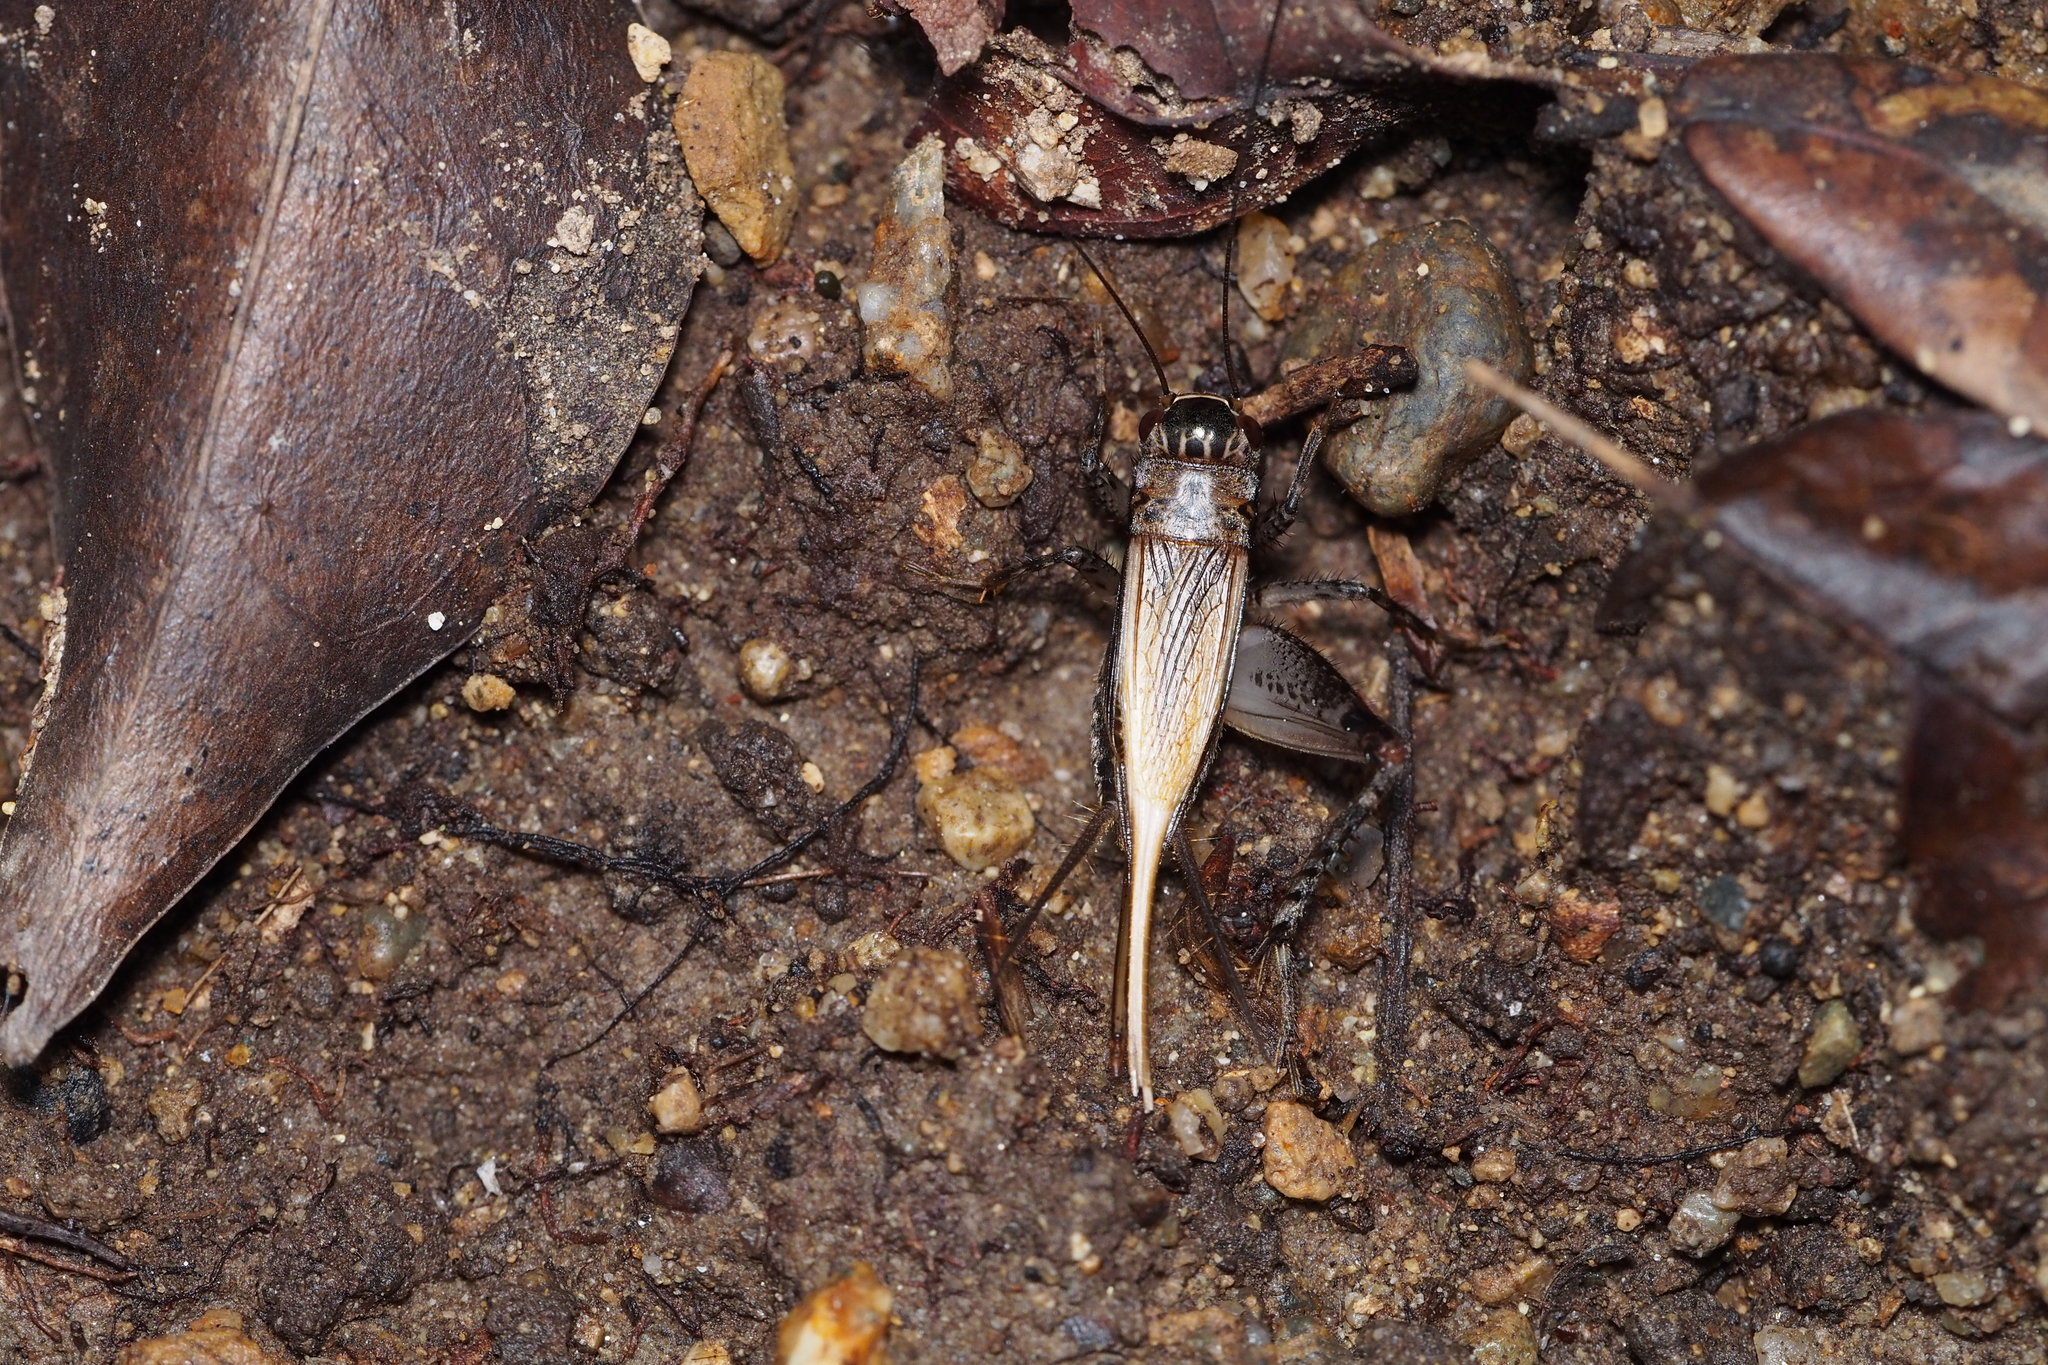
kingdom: Animalia
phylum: Arthropoda
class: Insecta
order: Orthoptera
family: Gryllidae
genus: Loxoblemmus
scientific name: Loxoblemmus arietulus
